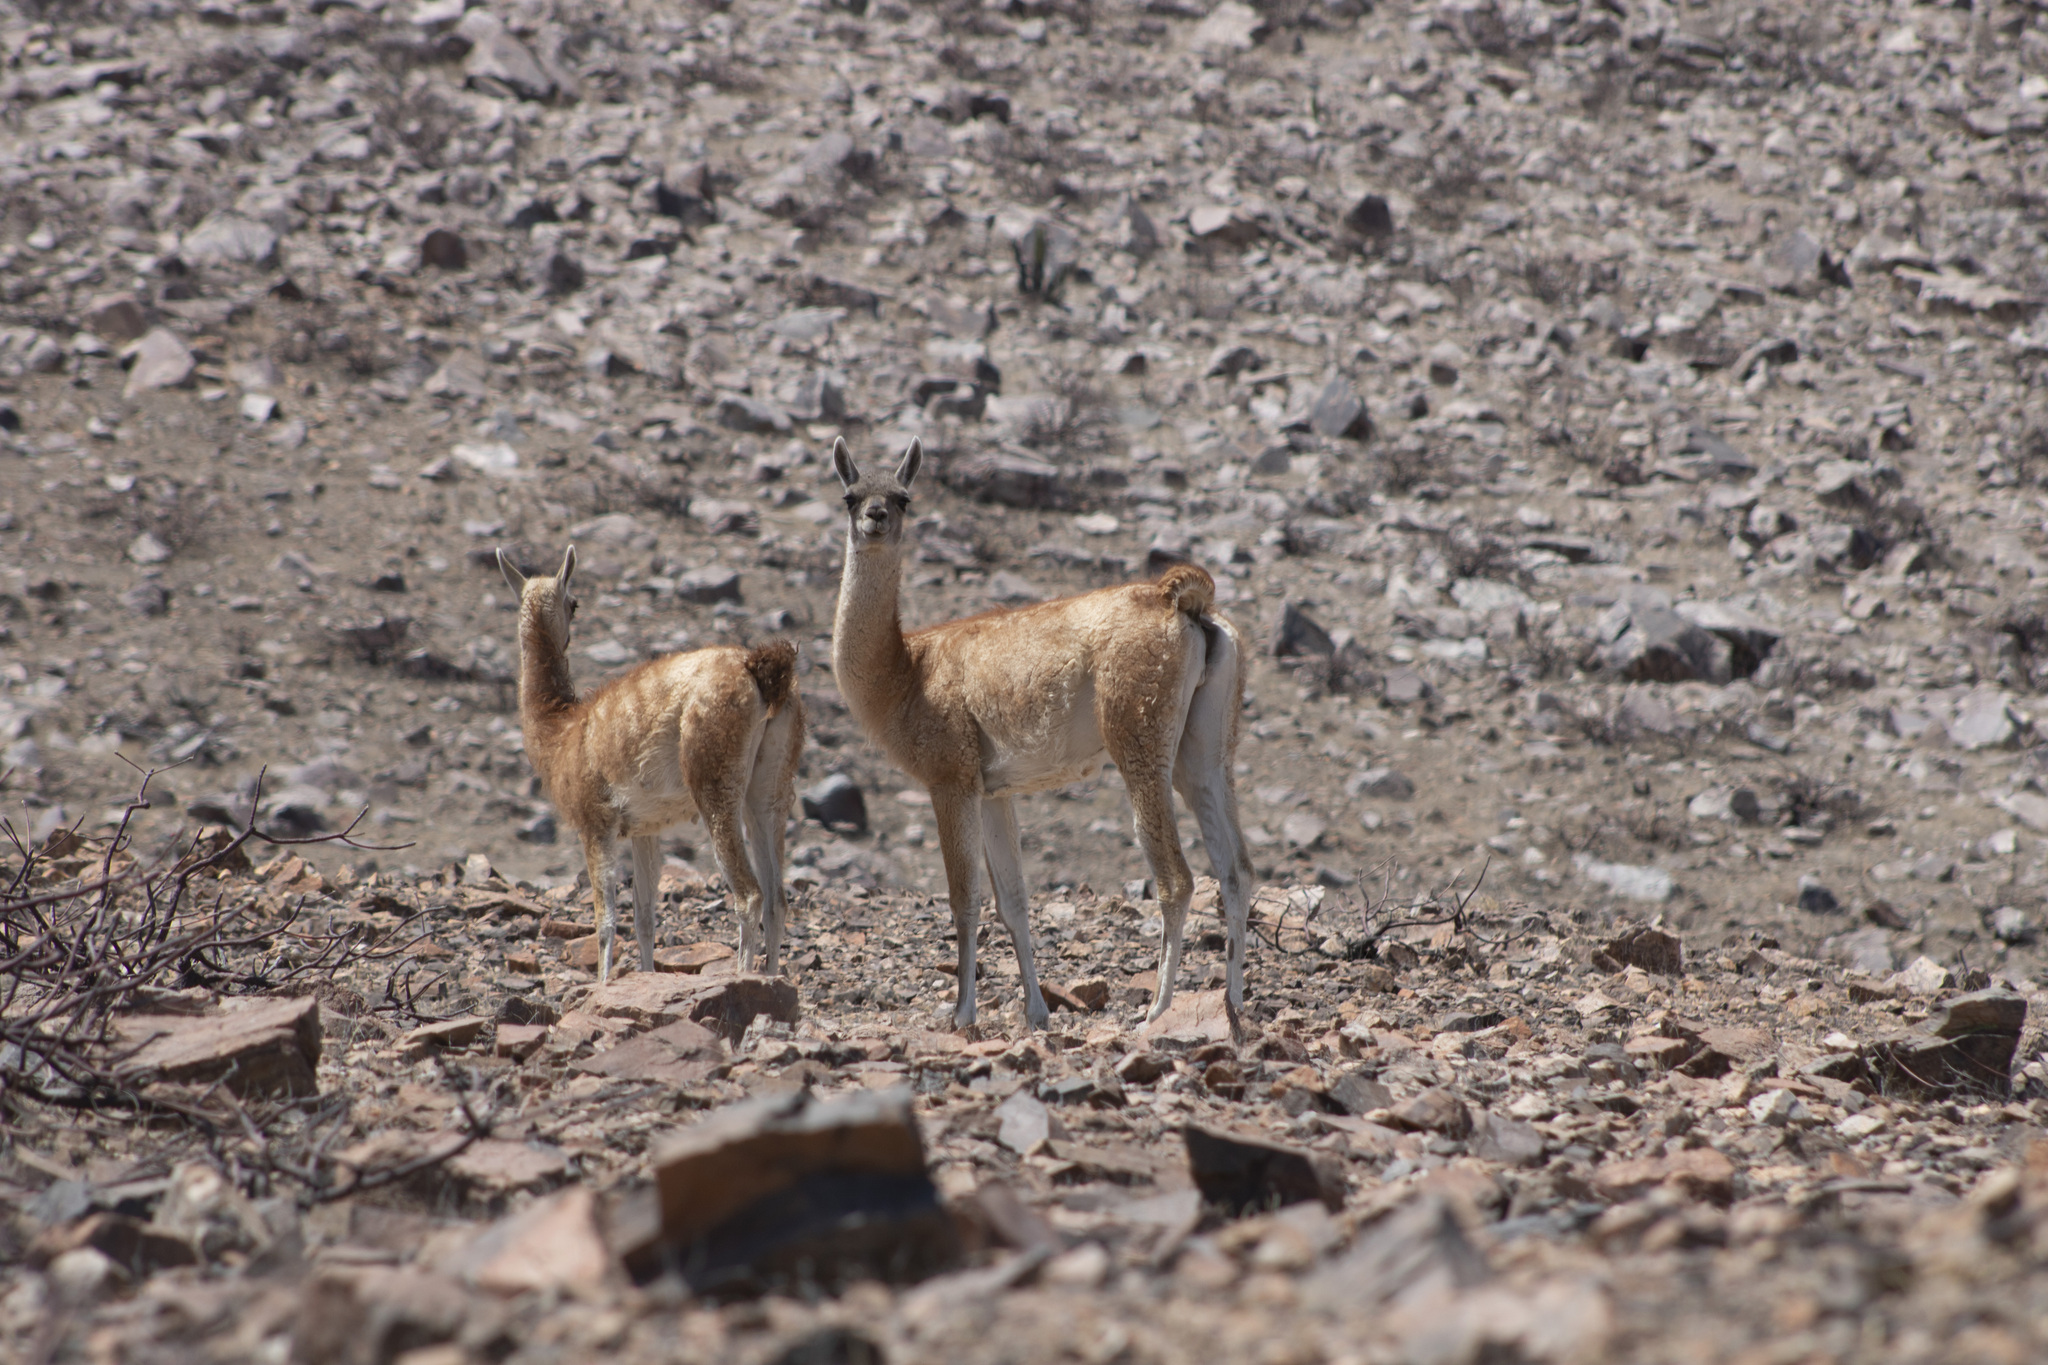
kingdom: Animalia
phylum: Chordata
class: Mammalia
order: Artiodactyla
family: Camelidae
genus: Lama
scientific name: Lama glama
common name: Llama
